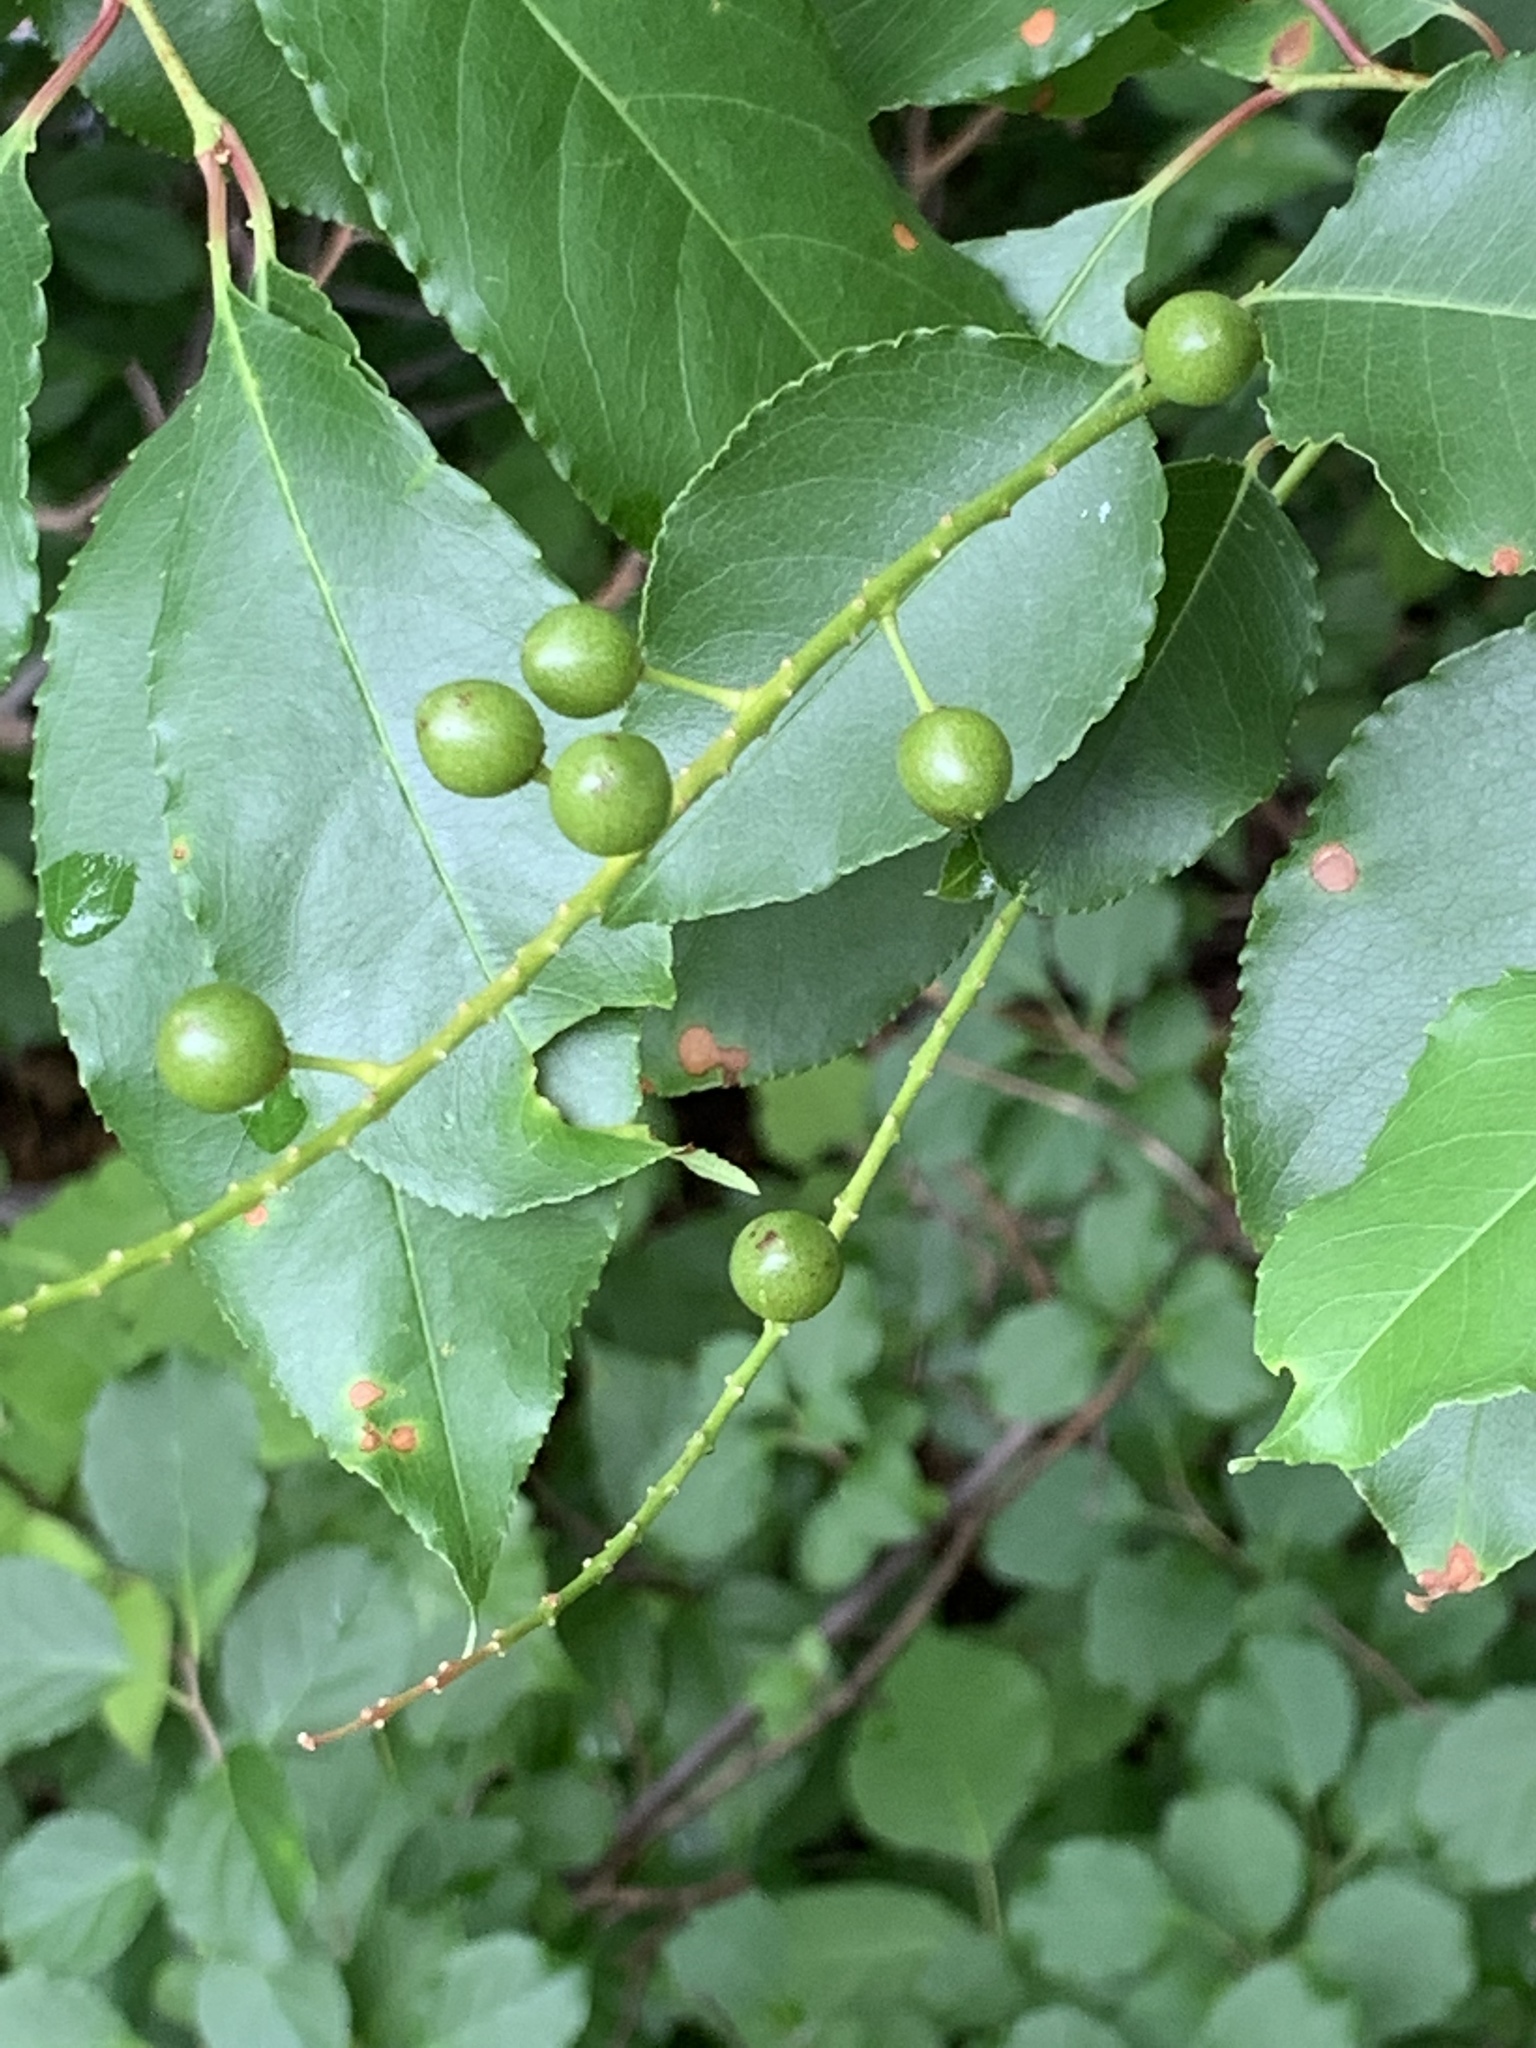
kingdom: Plantae
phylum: Tracheophyta
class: Magnoliopsida
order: Rosales
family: Rosaceae
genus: Prunus
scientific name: Prunus serotina
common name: Black cherry
